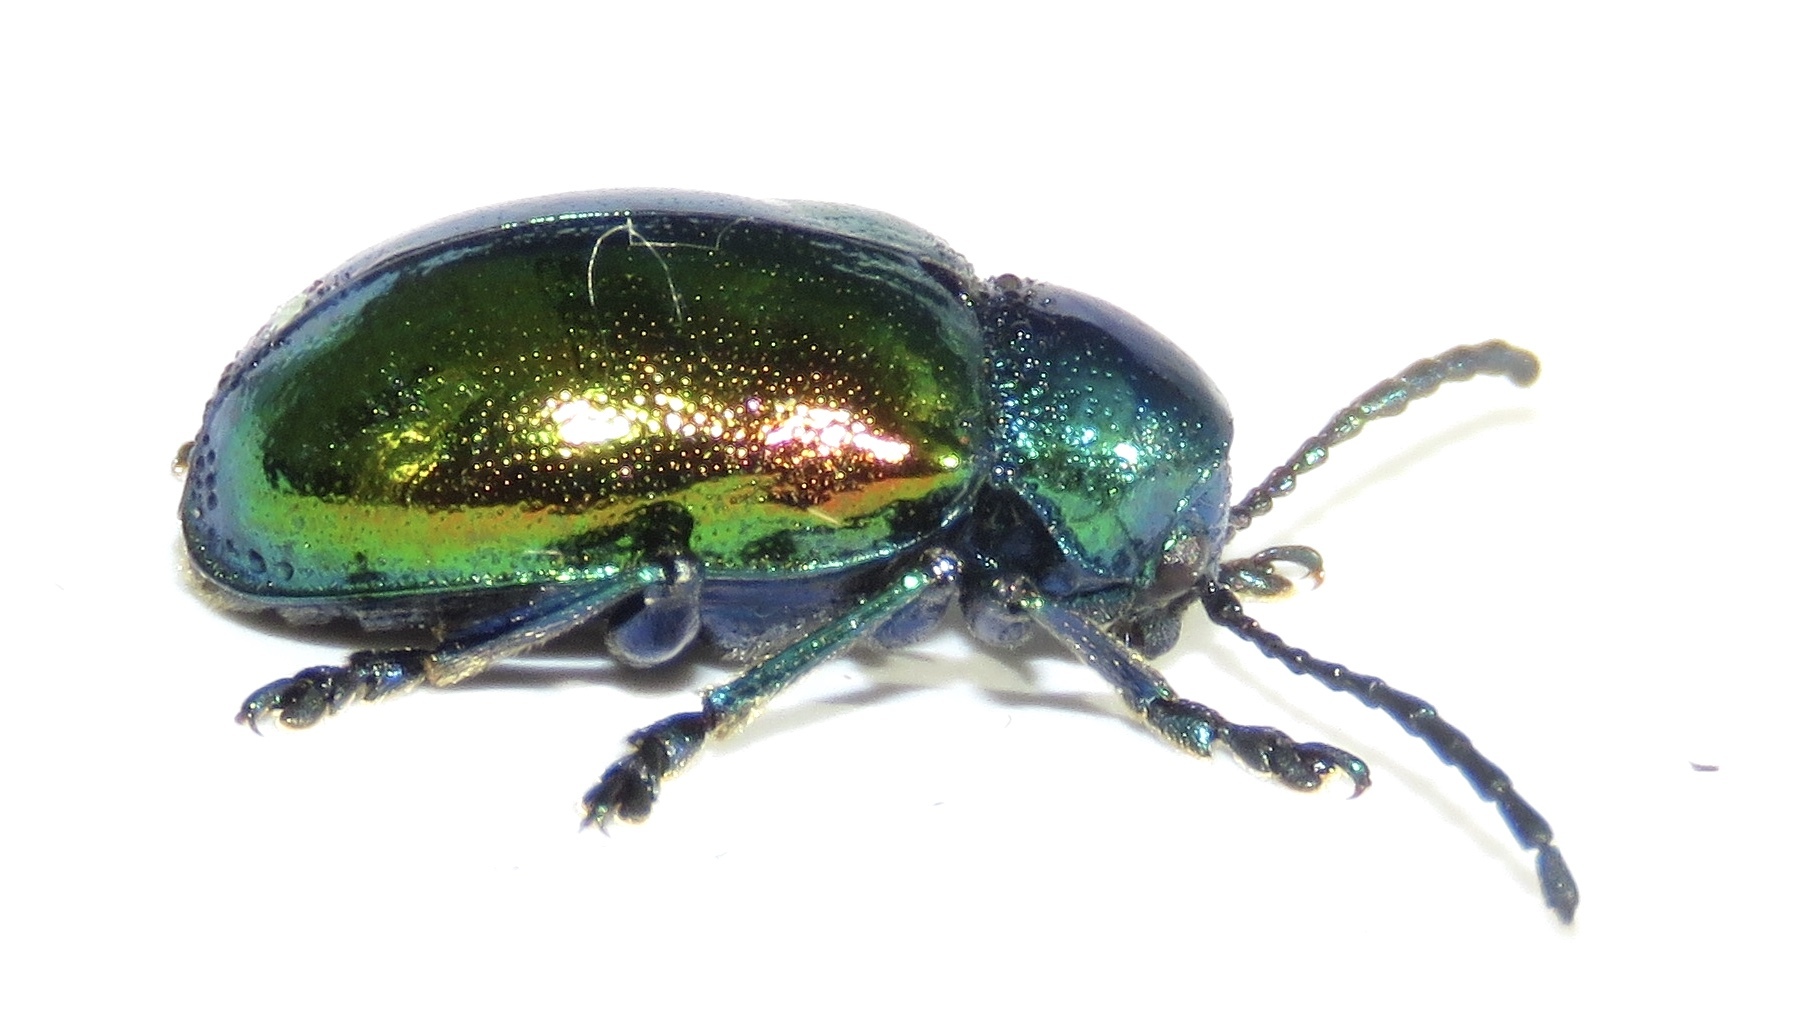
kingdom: Animalia
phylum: Arthropoda
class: Insecta
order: Coleoptera
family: Chrysomelidae
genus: Chrysochus
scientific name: Chrysochus auratus
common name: Dogbane leaf beetle
